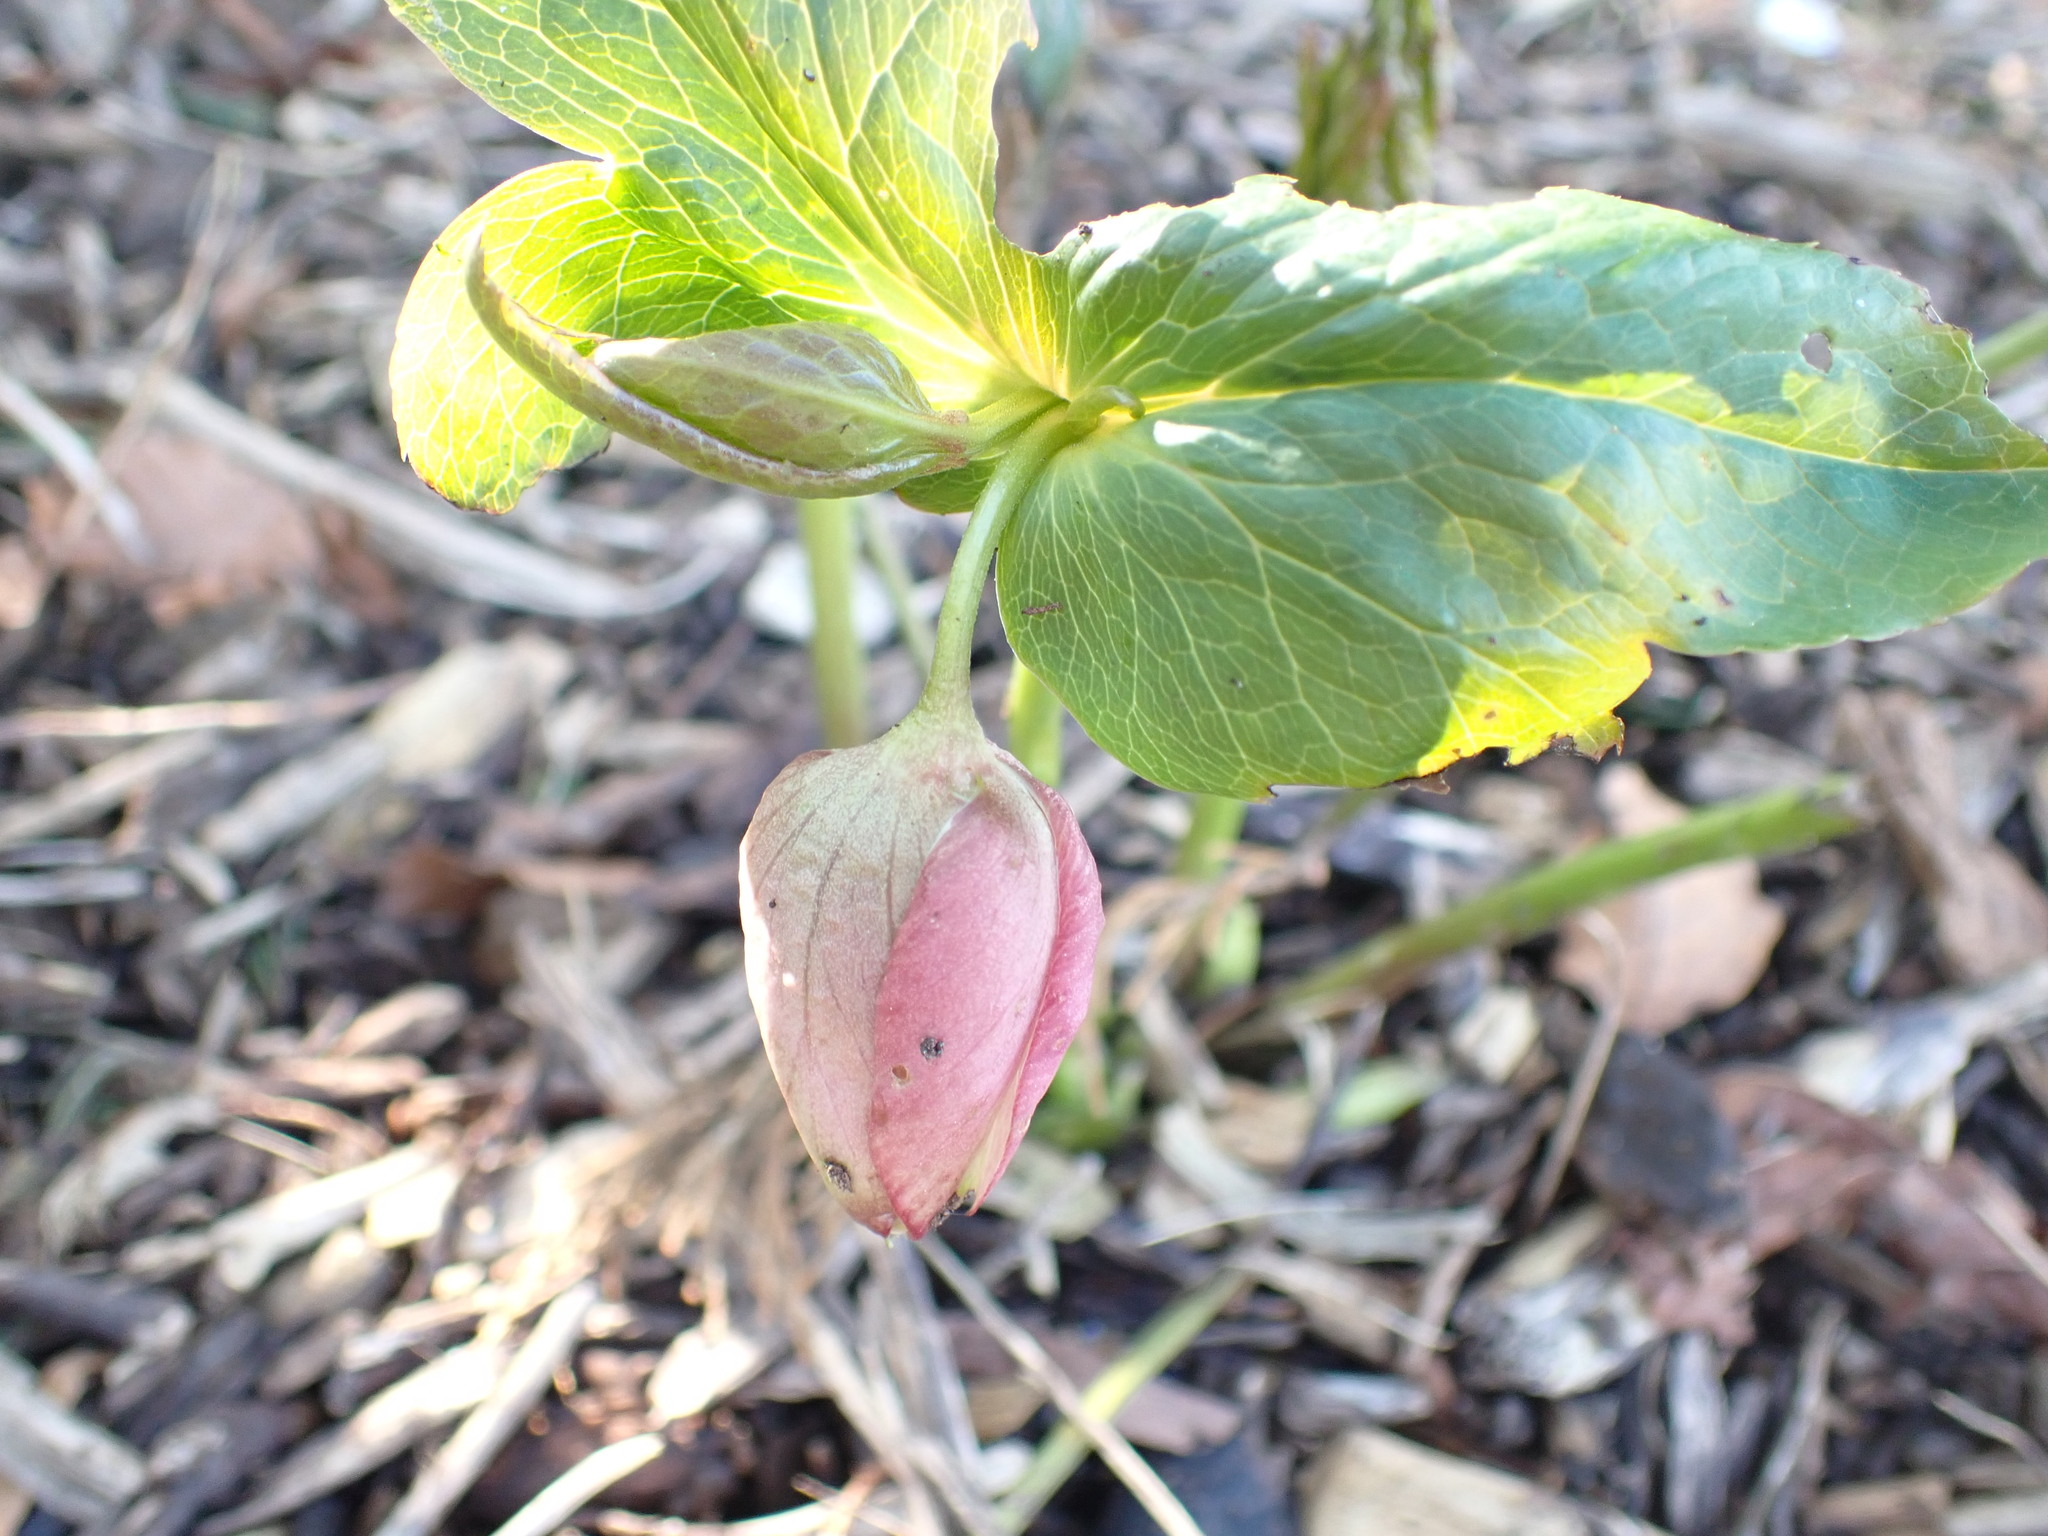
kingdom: Plantae
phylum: Tracheophyta
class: Magnoliopsida
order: Ranunculales
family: Ranunculaceae
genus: Helleborus
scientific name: Helleborus orientalis
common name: Lenten-rose
